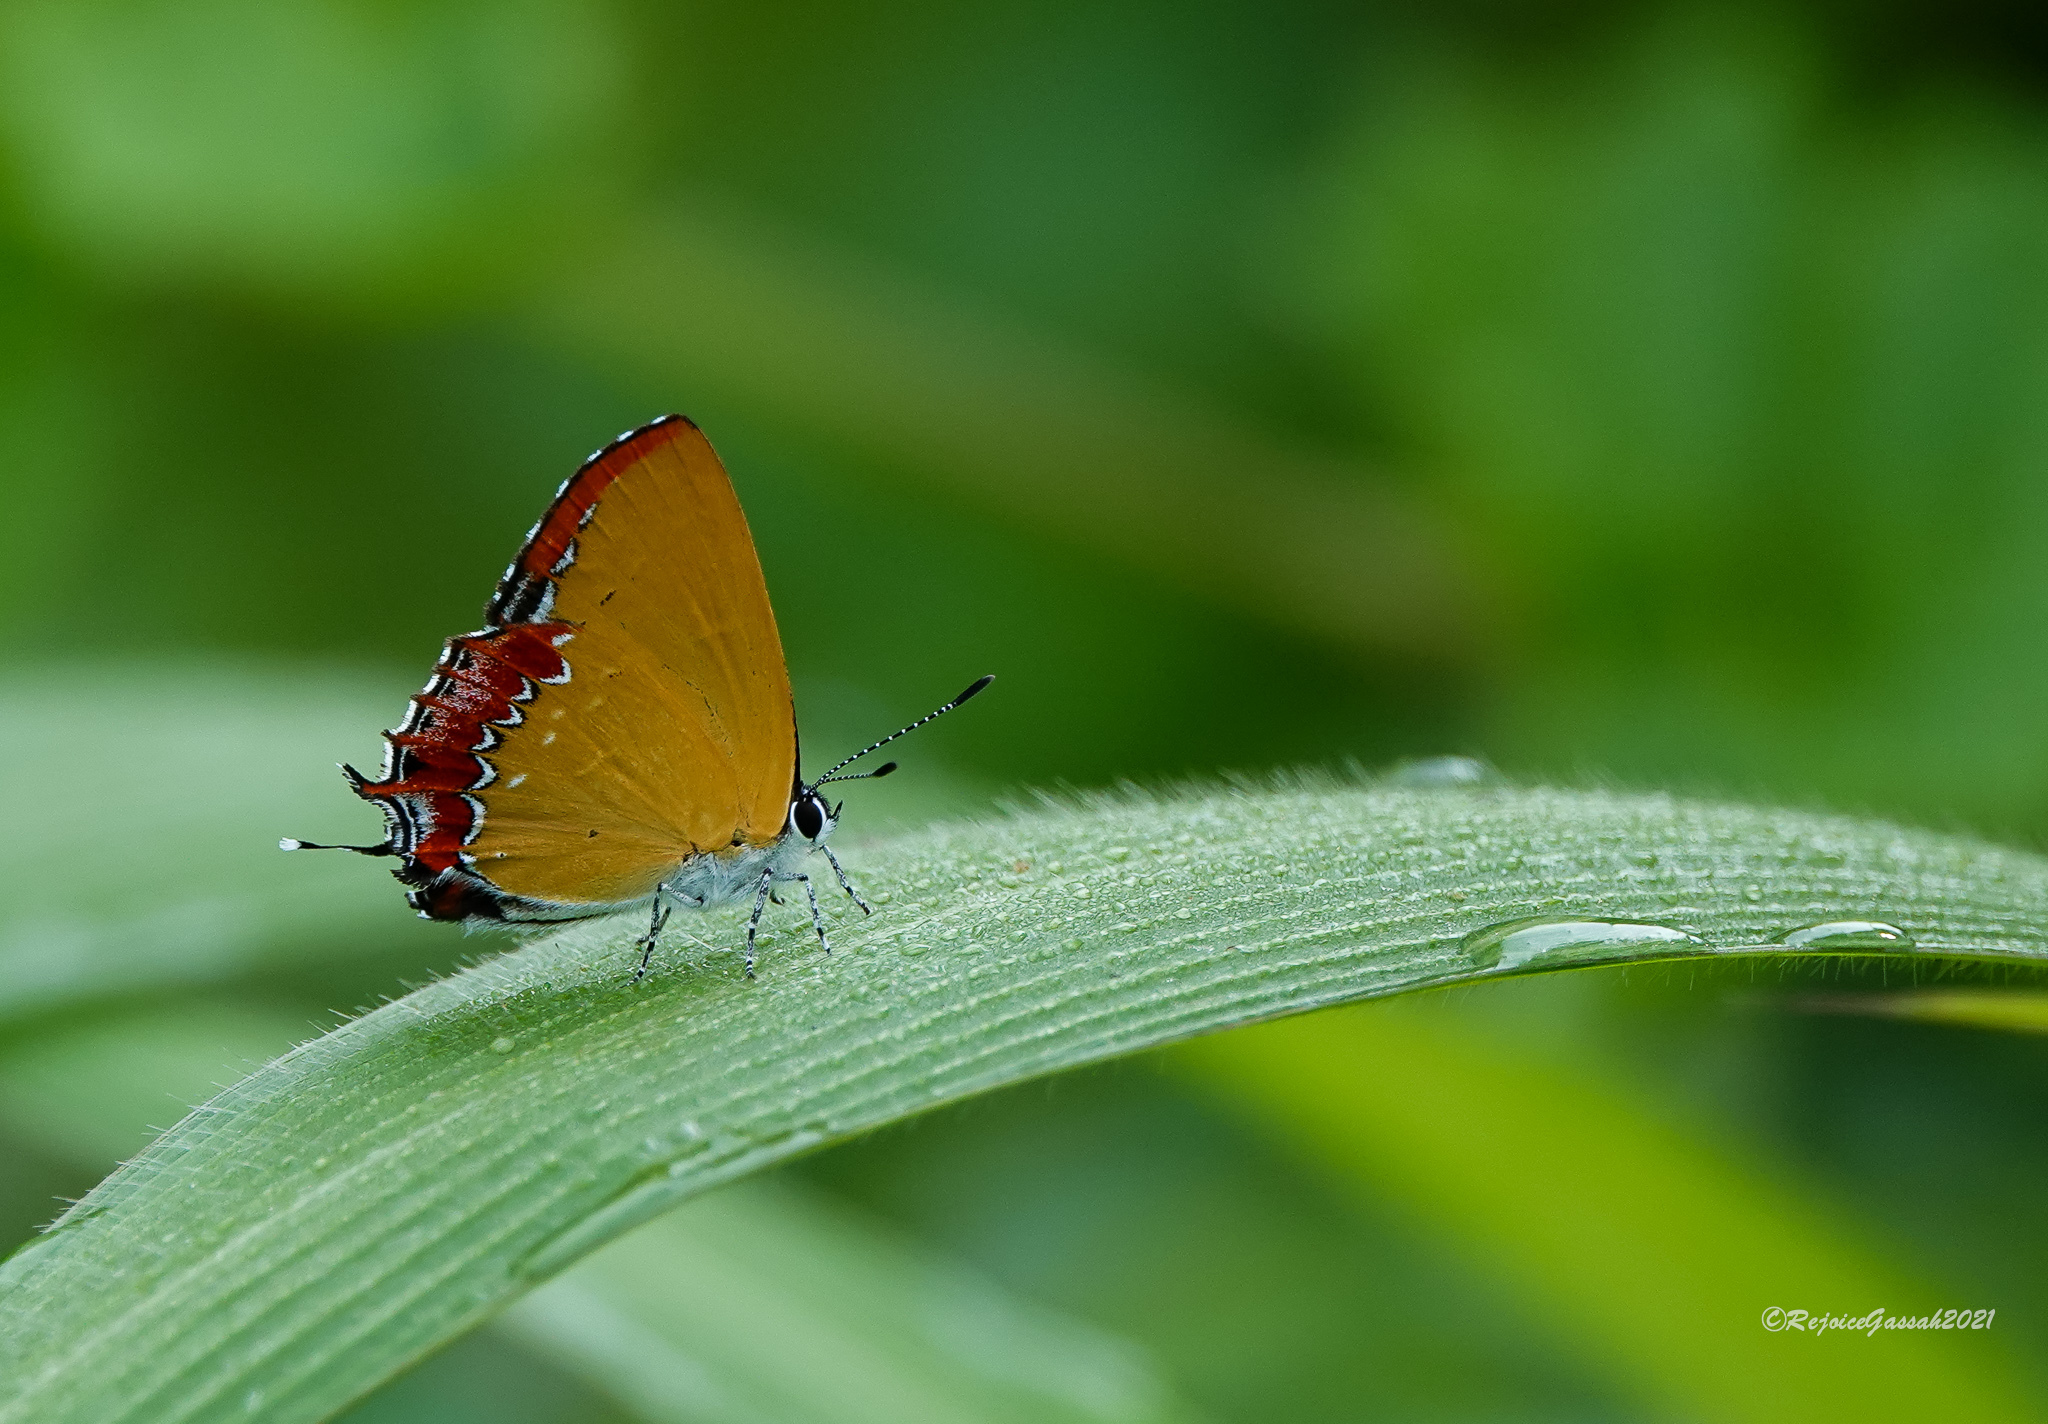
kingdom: Animalia
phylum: Arthropoda
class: Insecta
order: Lepidoptera
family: Lycaenidae
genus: Heliophorus
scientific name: Heliophorus epicles
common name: Purple sapphire
